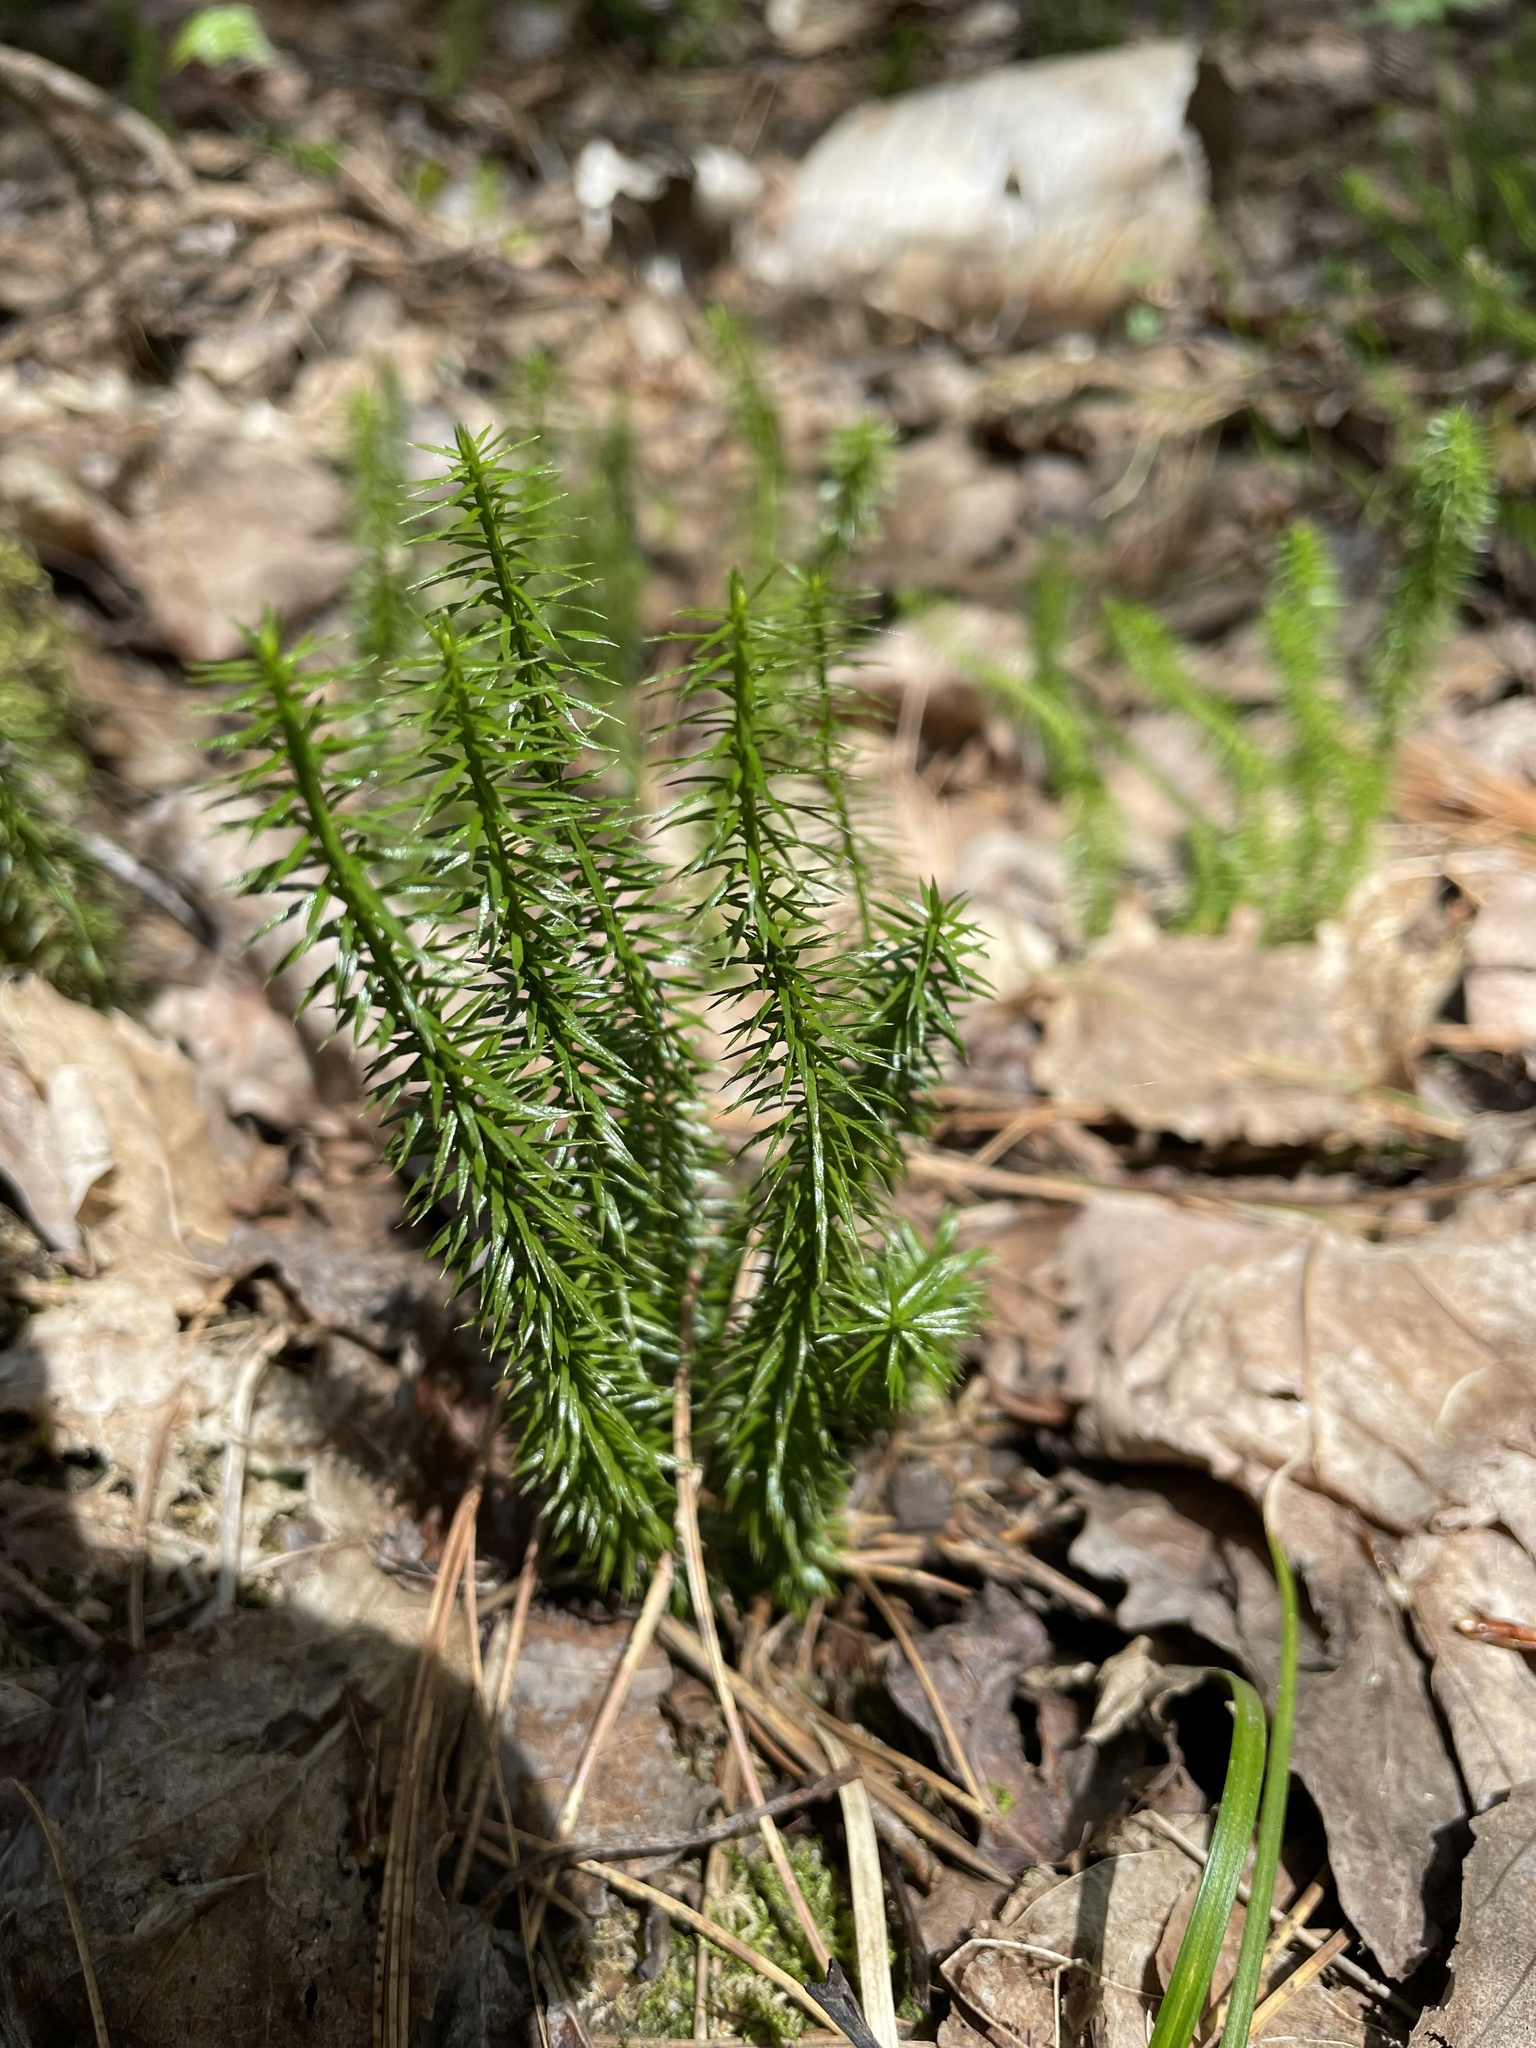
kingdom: Plantae
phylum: Tracheophyta
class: Lycopodiopsida
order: Lycopodiales
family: Lycopodiaceae
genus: Spinulum
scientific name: Spinulum annotinum
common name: Interrupted club-moss
